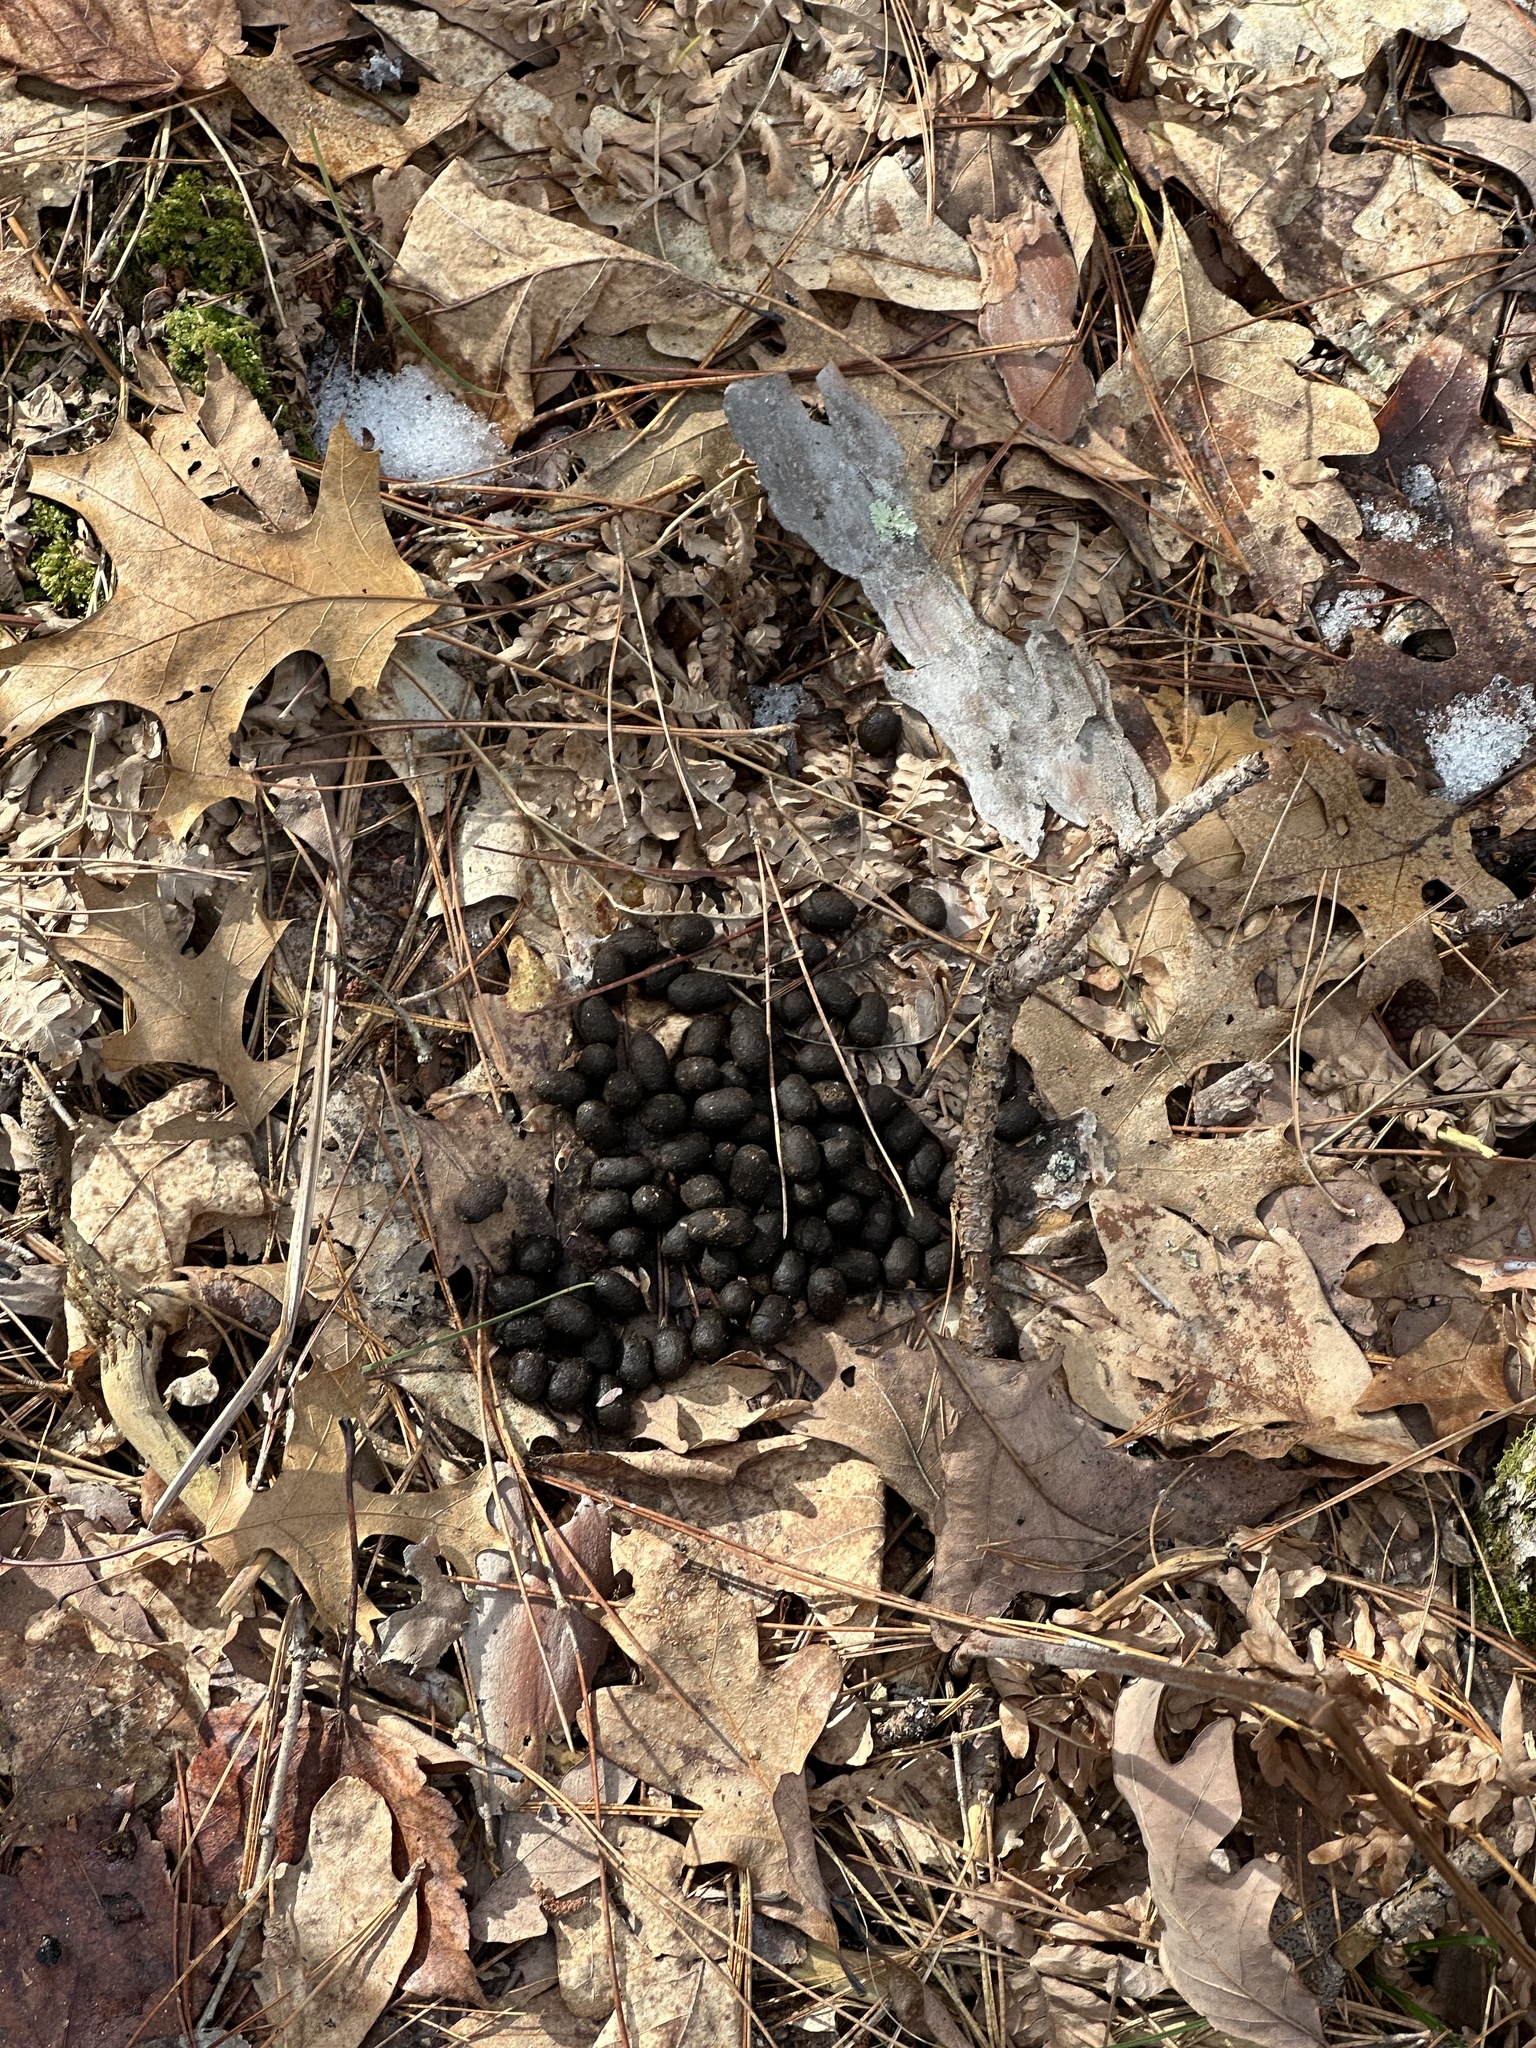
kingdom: Animalia
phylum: Chordata
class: Mammalia
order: Artiodactyla
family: Cervidae
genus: Odocoileus
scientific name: Odocoileus virginianus
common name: White-tailed deer
